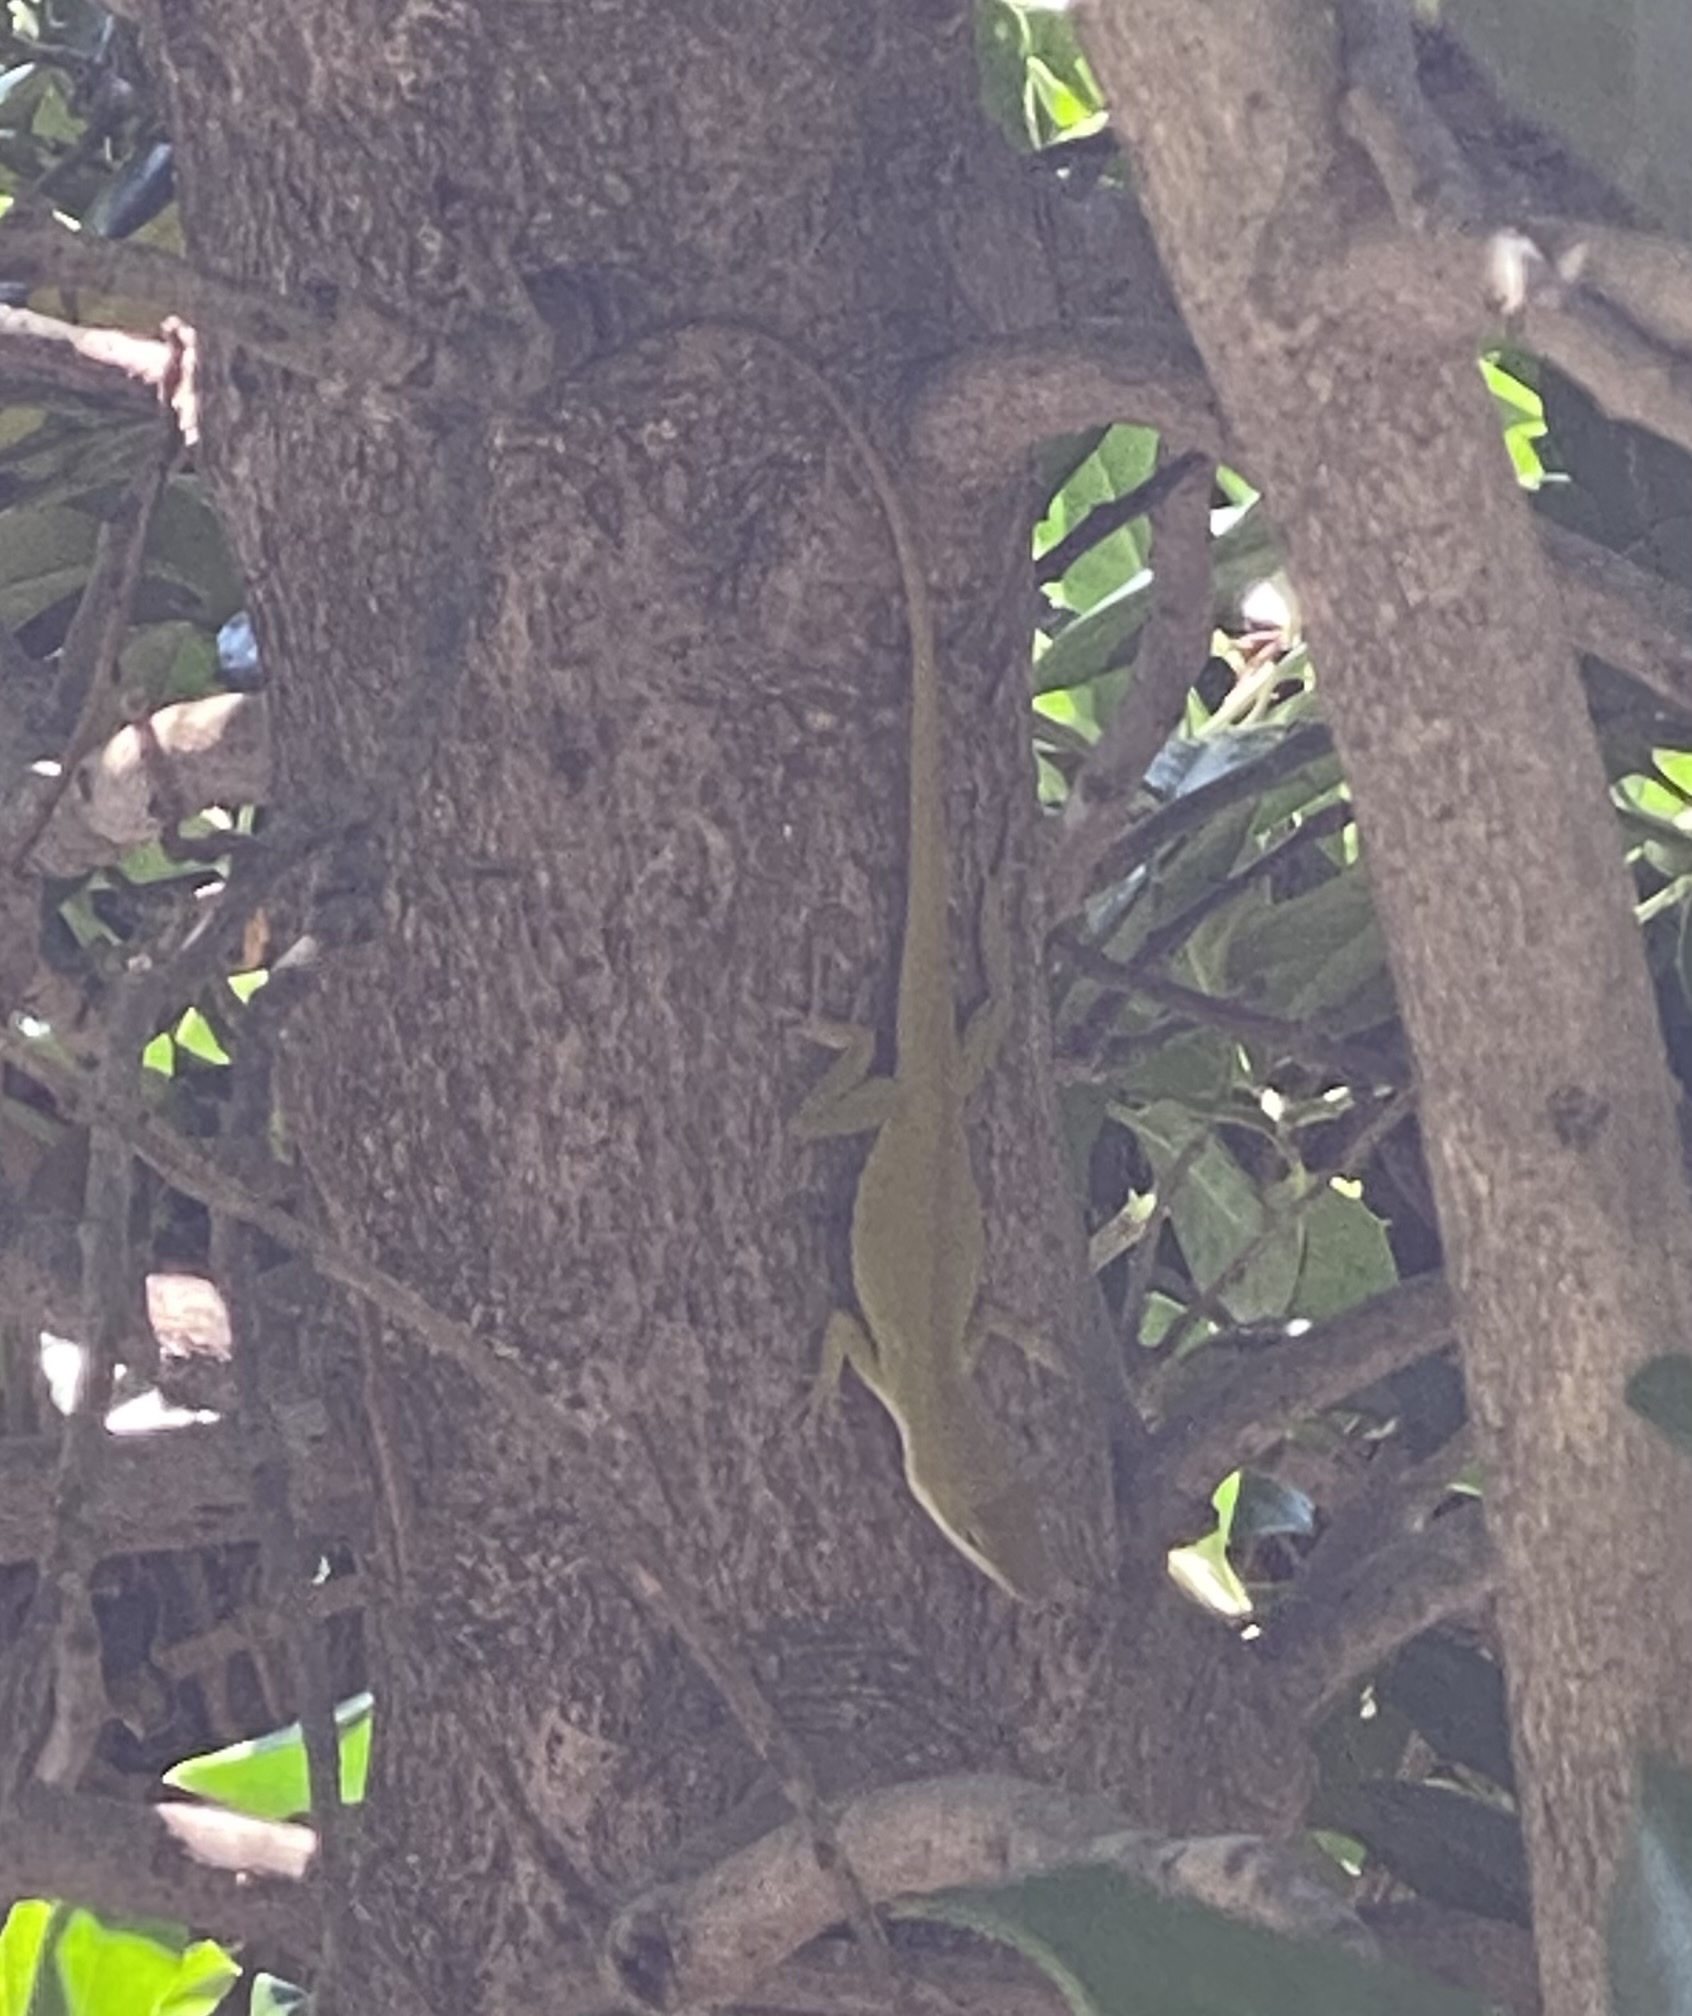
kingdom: Animalia
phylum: Chordata
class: Squamata
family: Dactyloidae
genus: Anolis
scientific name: Anolis carolinensis
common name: Green anole
